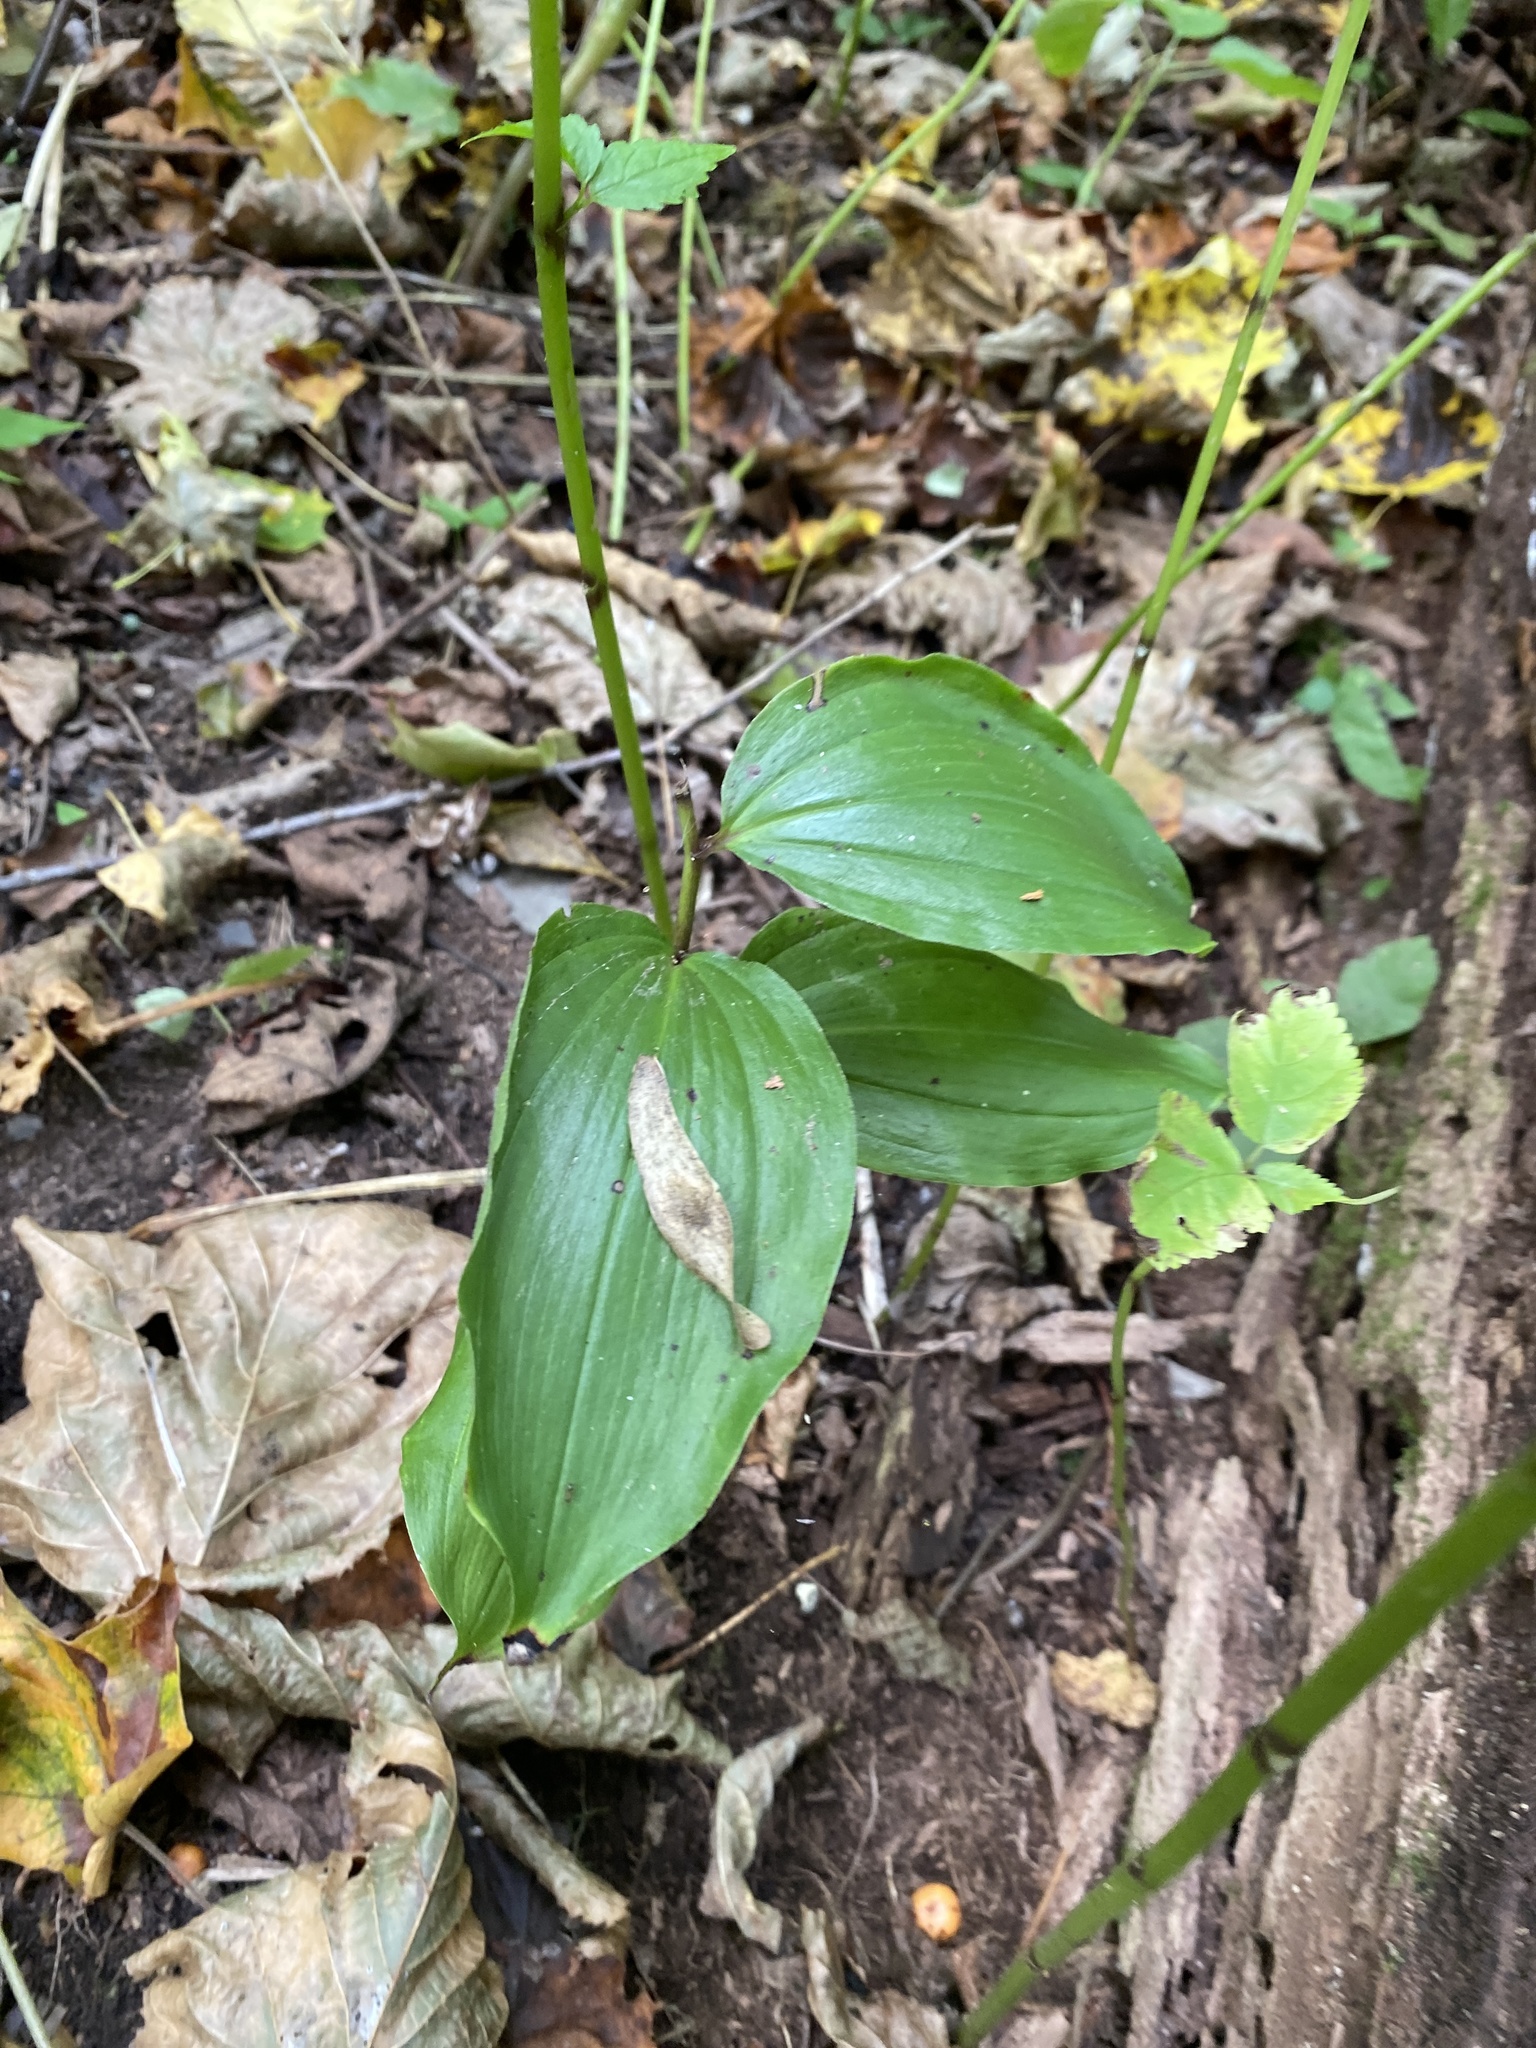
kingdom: Plantae
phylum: Tracheophyta
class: Liliopsida
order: Asparagales
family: Asparagaceae
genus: Maianthemum
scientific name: Maianthemum racemosum
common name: False spikenard
